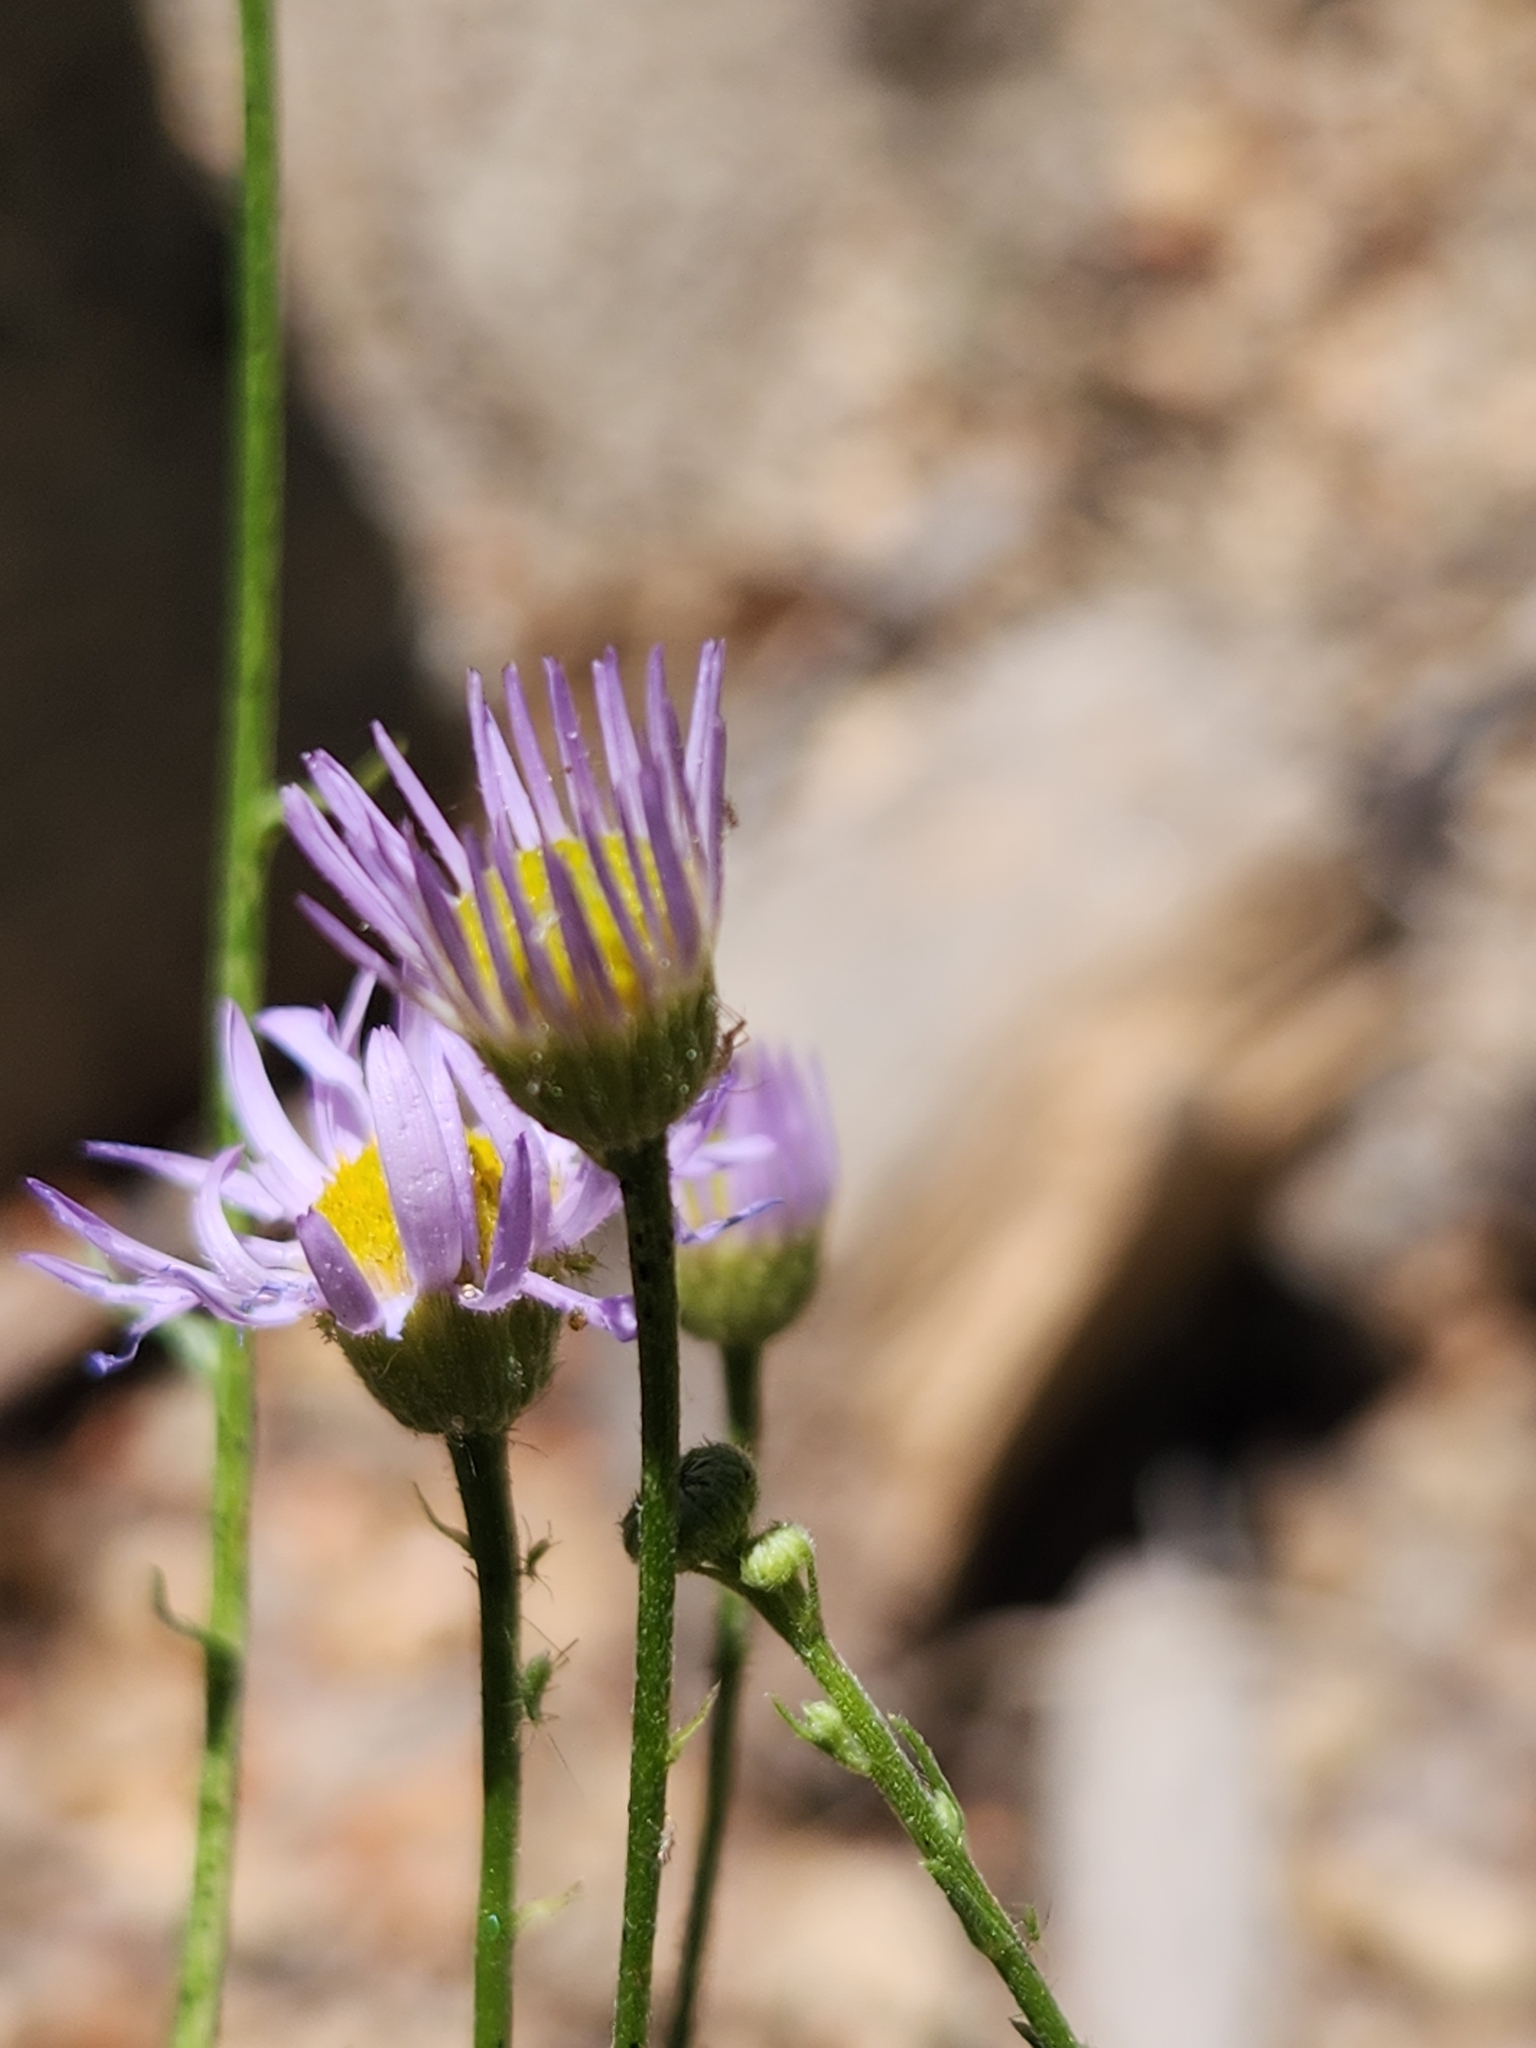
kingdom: Plantae
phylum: Tracheophyta
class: Magnoliopsida
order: Asterales
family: Asteraceae
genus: Erigeron
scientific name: Erigeron foliosus
